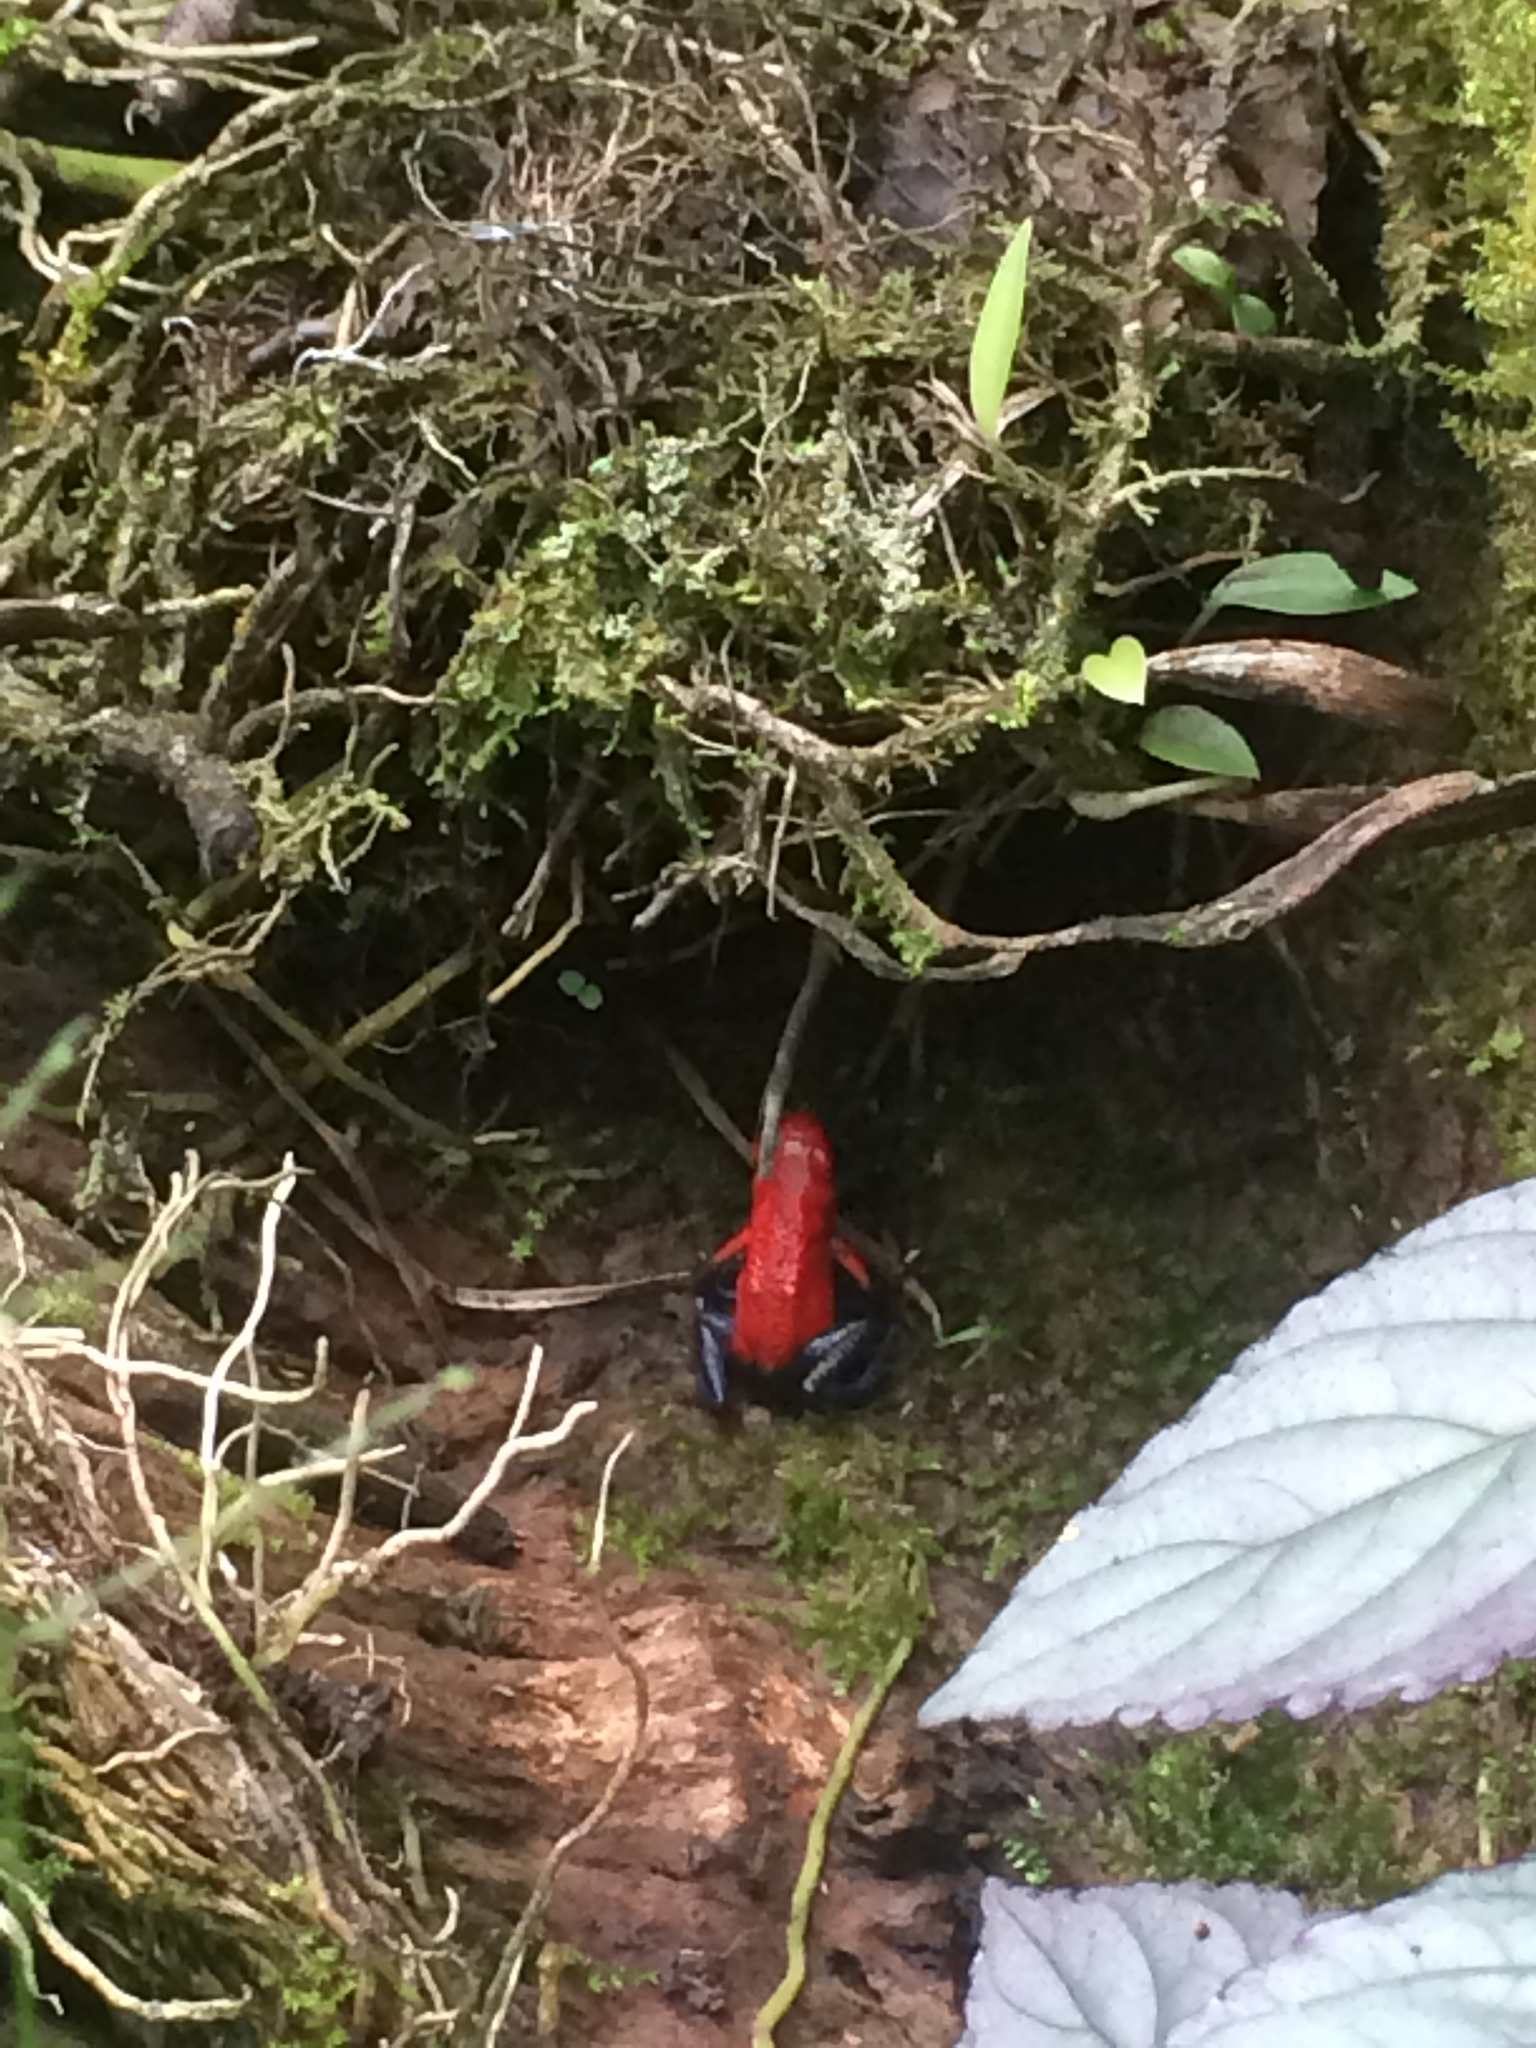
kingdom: Animalia
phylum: Chordata
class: Amphibia
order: Anura
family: Dendrobatidae
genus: Oophaga
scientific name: Oophaga pumilio
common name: Flaming poison frog
